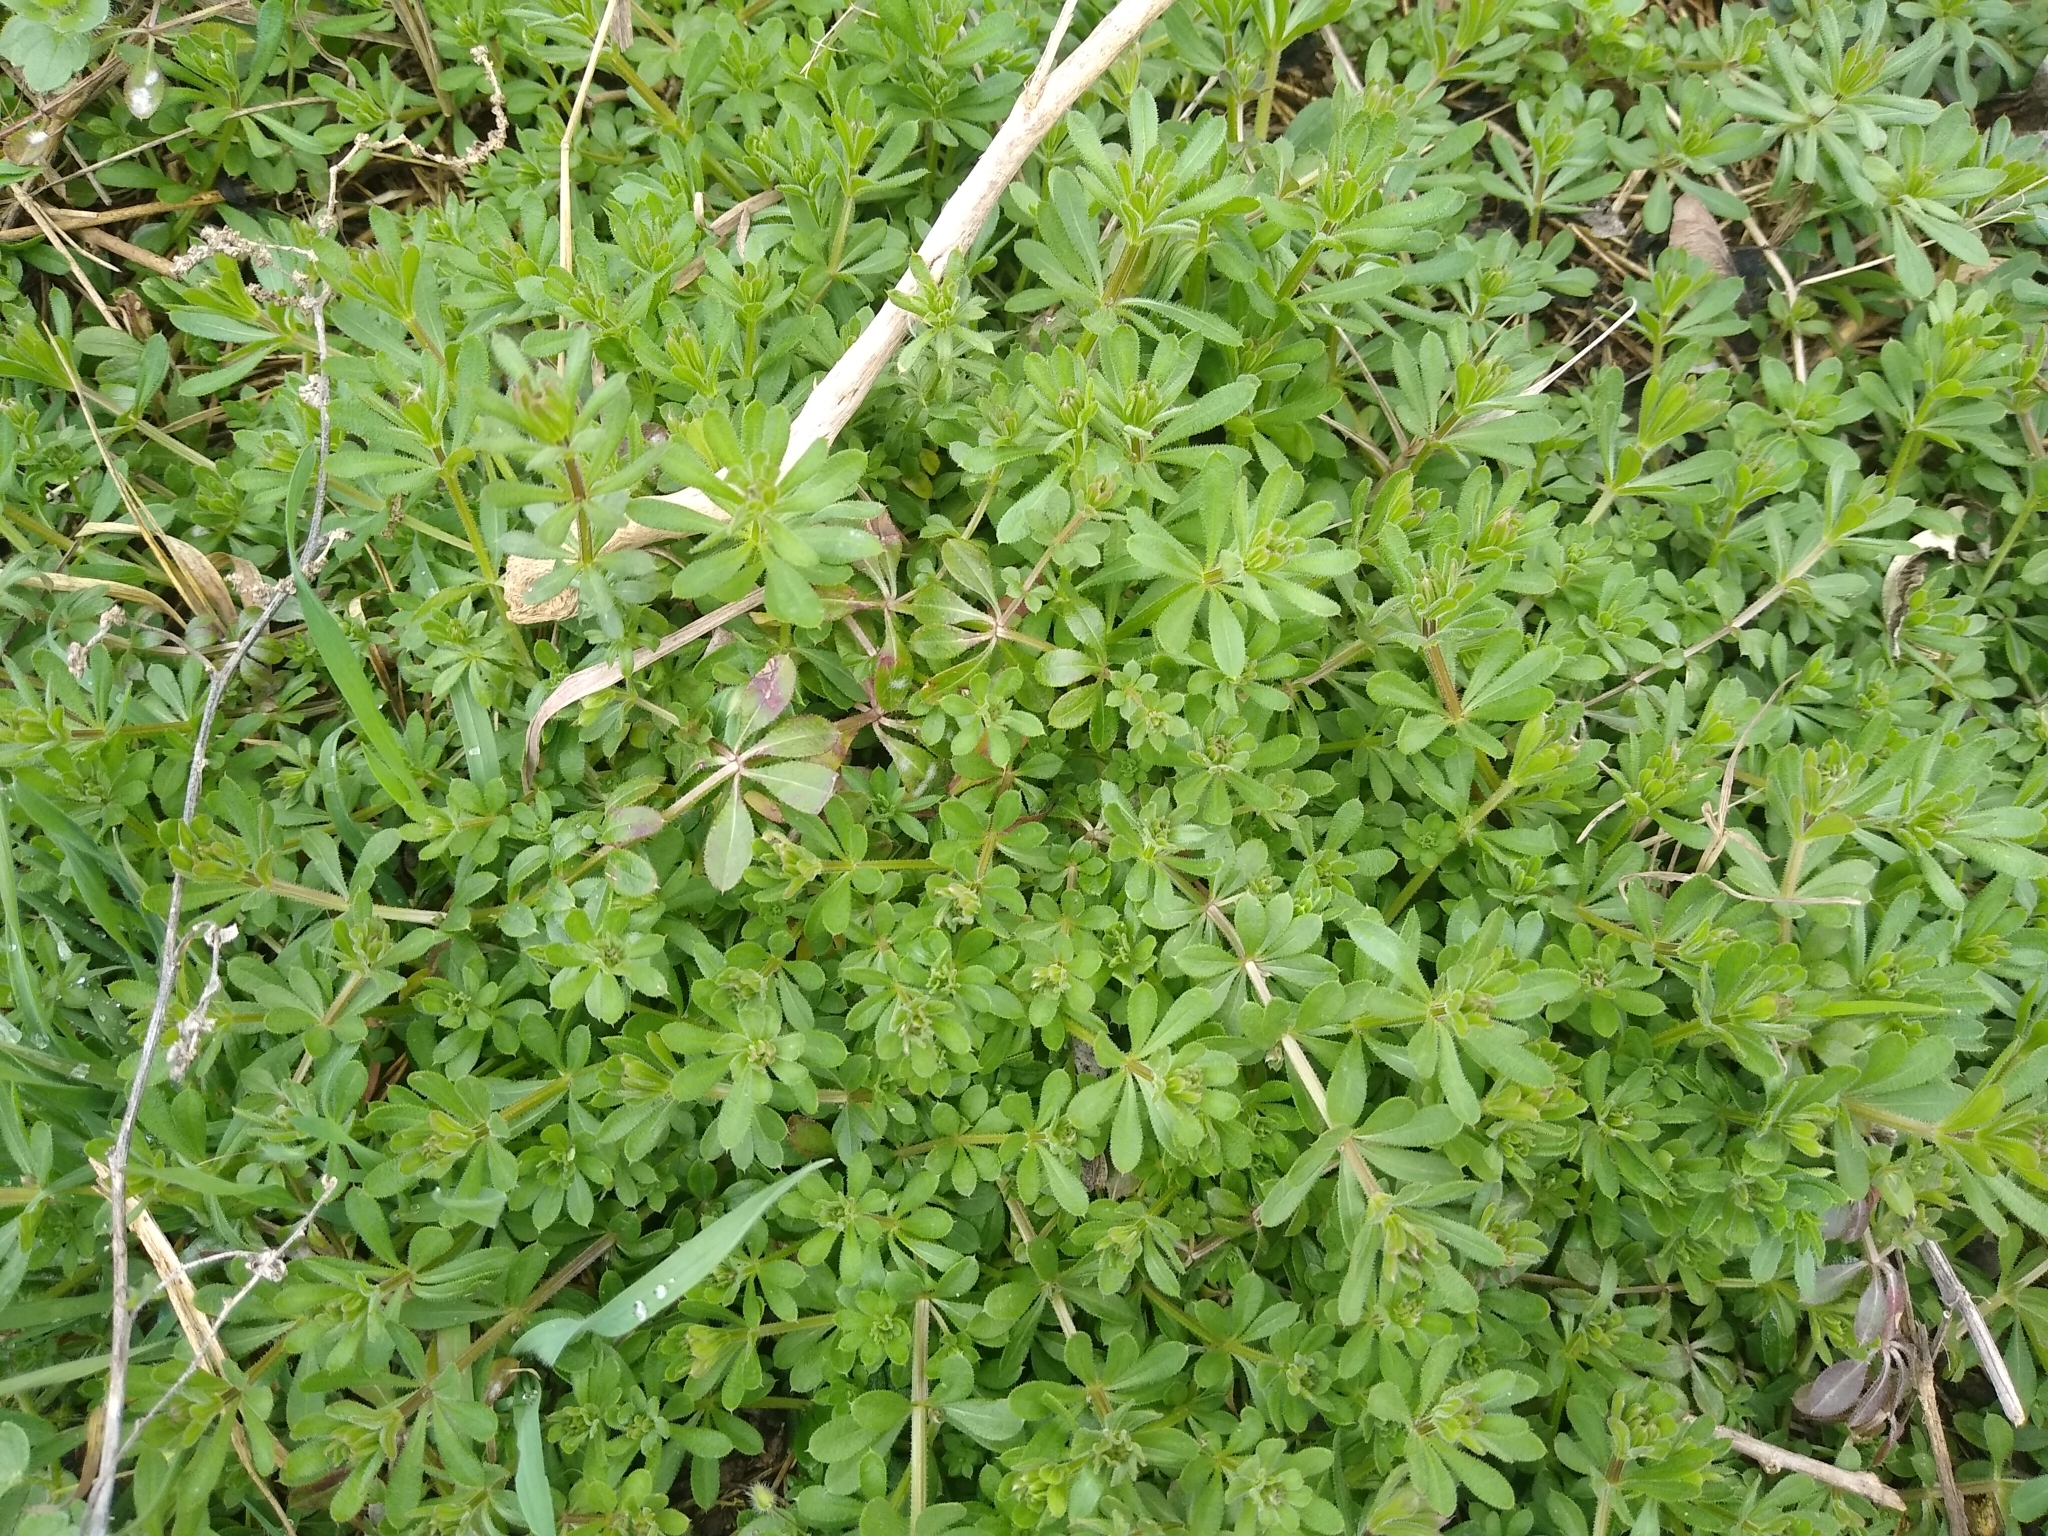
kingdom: Plantae
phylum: Tracheophyta
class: Magnoliopsida
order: Gentianales
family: Rubiaceae
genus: Galium
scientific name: Galium aparine
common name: Cleavers
